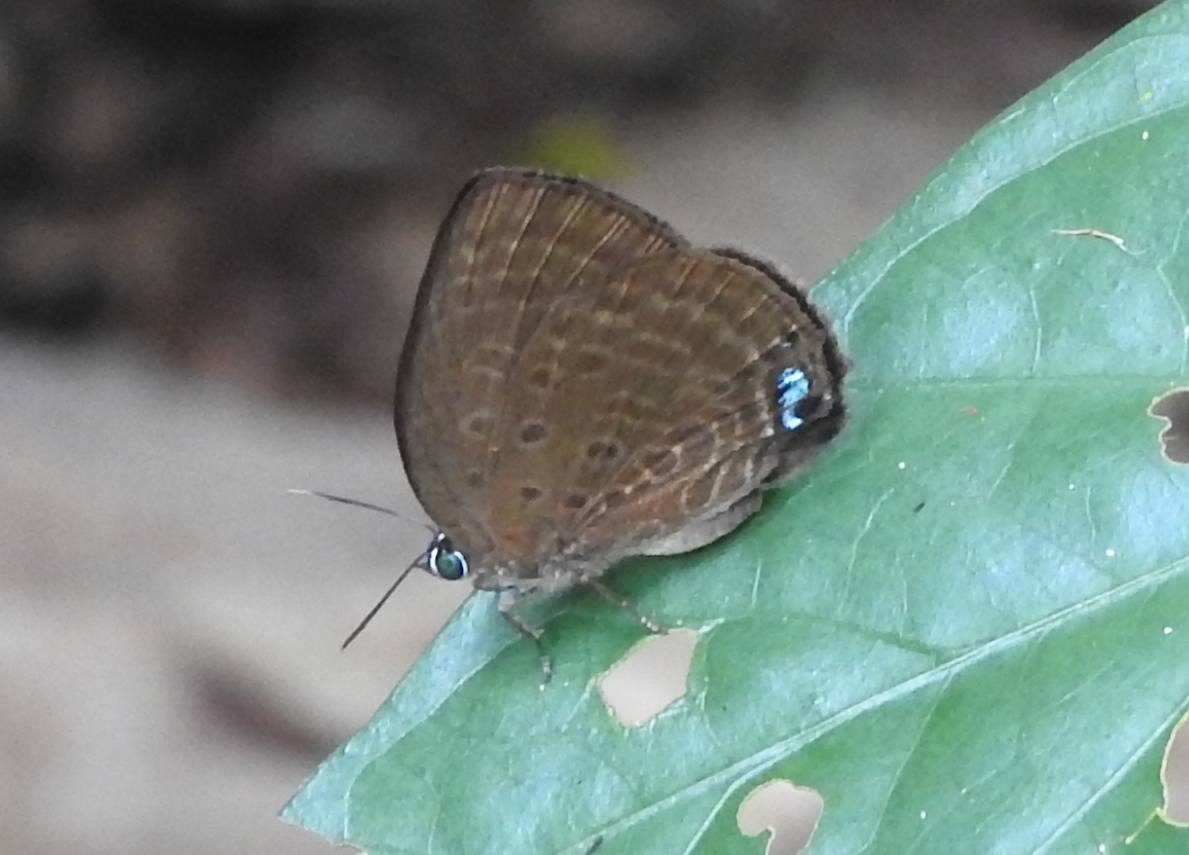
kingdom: Animalia
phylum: Arthropoda
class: Insecta
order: Lepidoptera
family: Lycaenidae
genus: Arhopala
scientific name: Arhopala amphimuta
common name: Broad yellow oakblue
